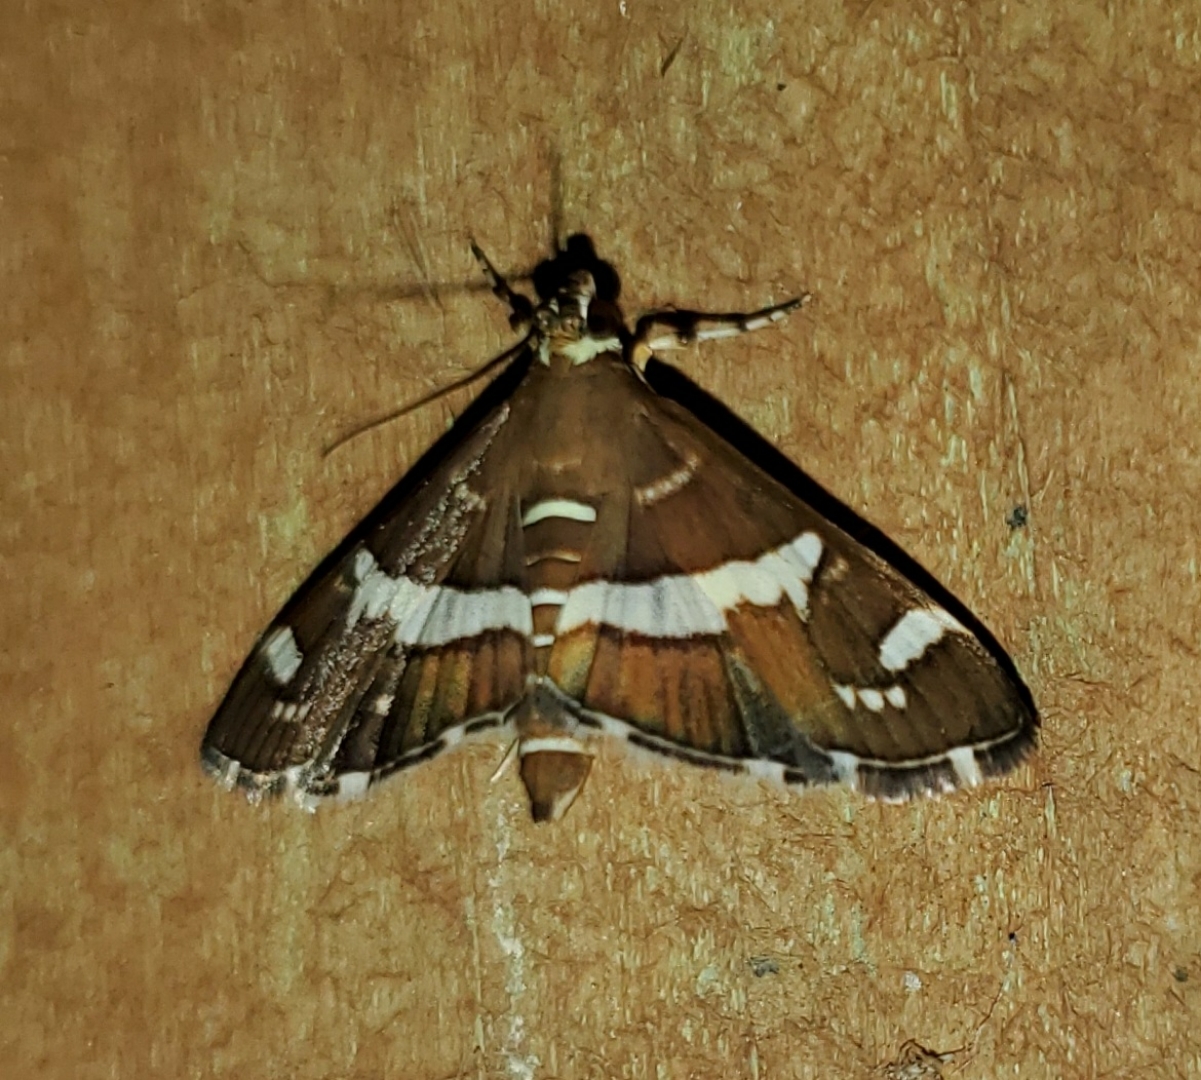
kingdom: Animalia
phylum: Arthropoda
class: Insecta
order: Lepidoptera
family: Crambidae
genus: Spoladea
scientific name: Spoladea recurvalis
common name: Beet webworm moth
